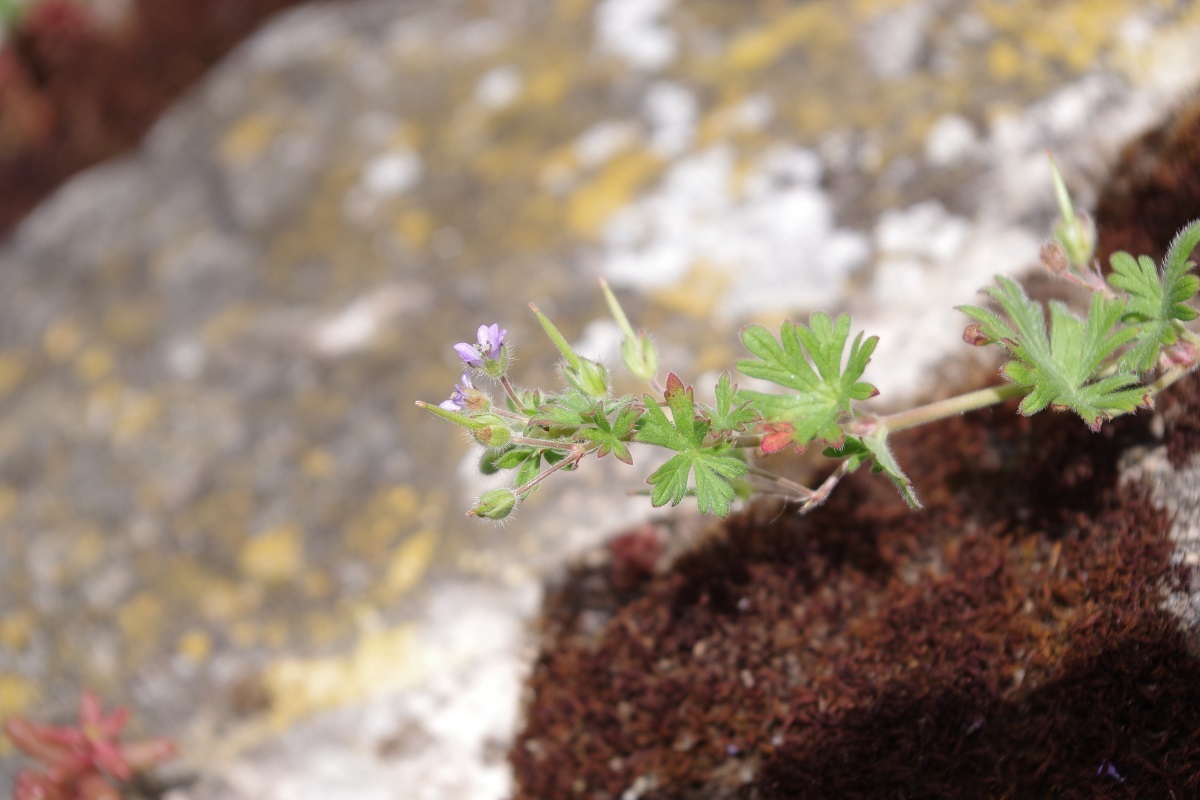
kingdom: Plantae
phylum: Tracheophyta
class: Magnoliopsida
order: Geraniales
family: Geraniaceae
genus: Geranium
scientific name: Geranium pusillum
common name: Small geranium
